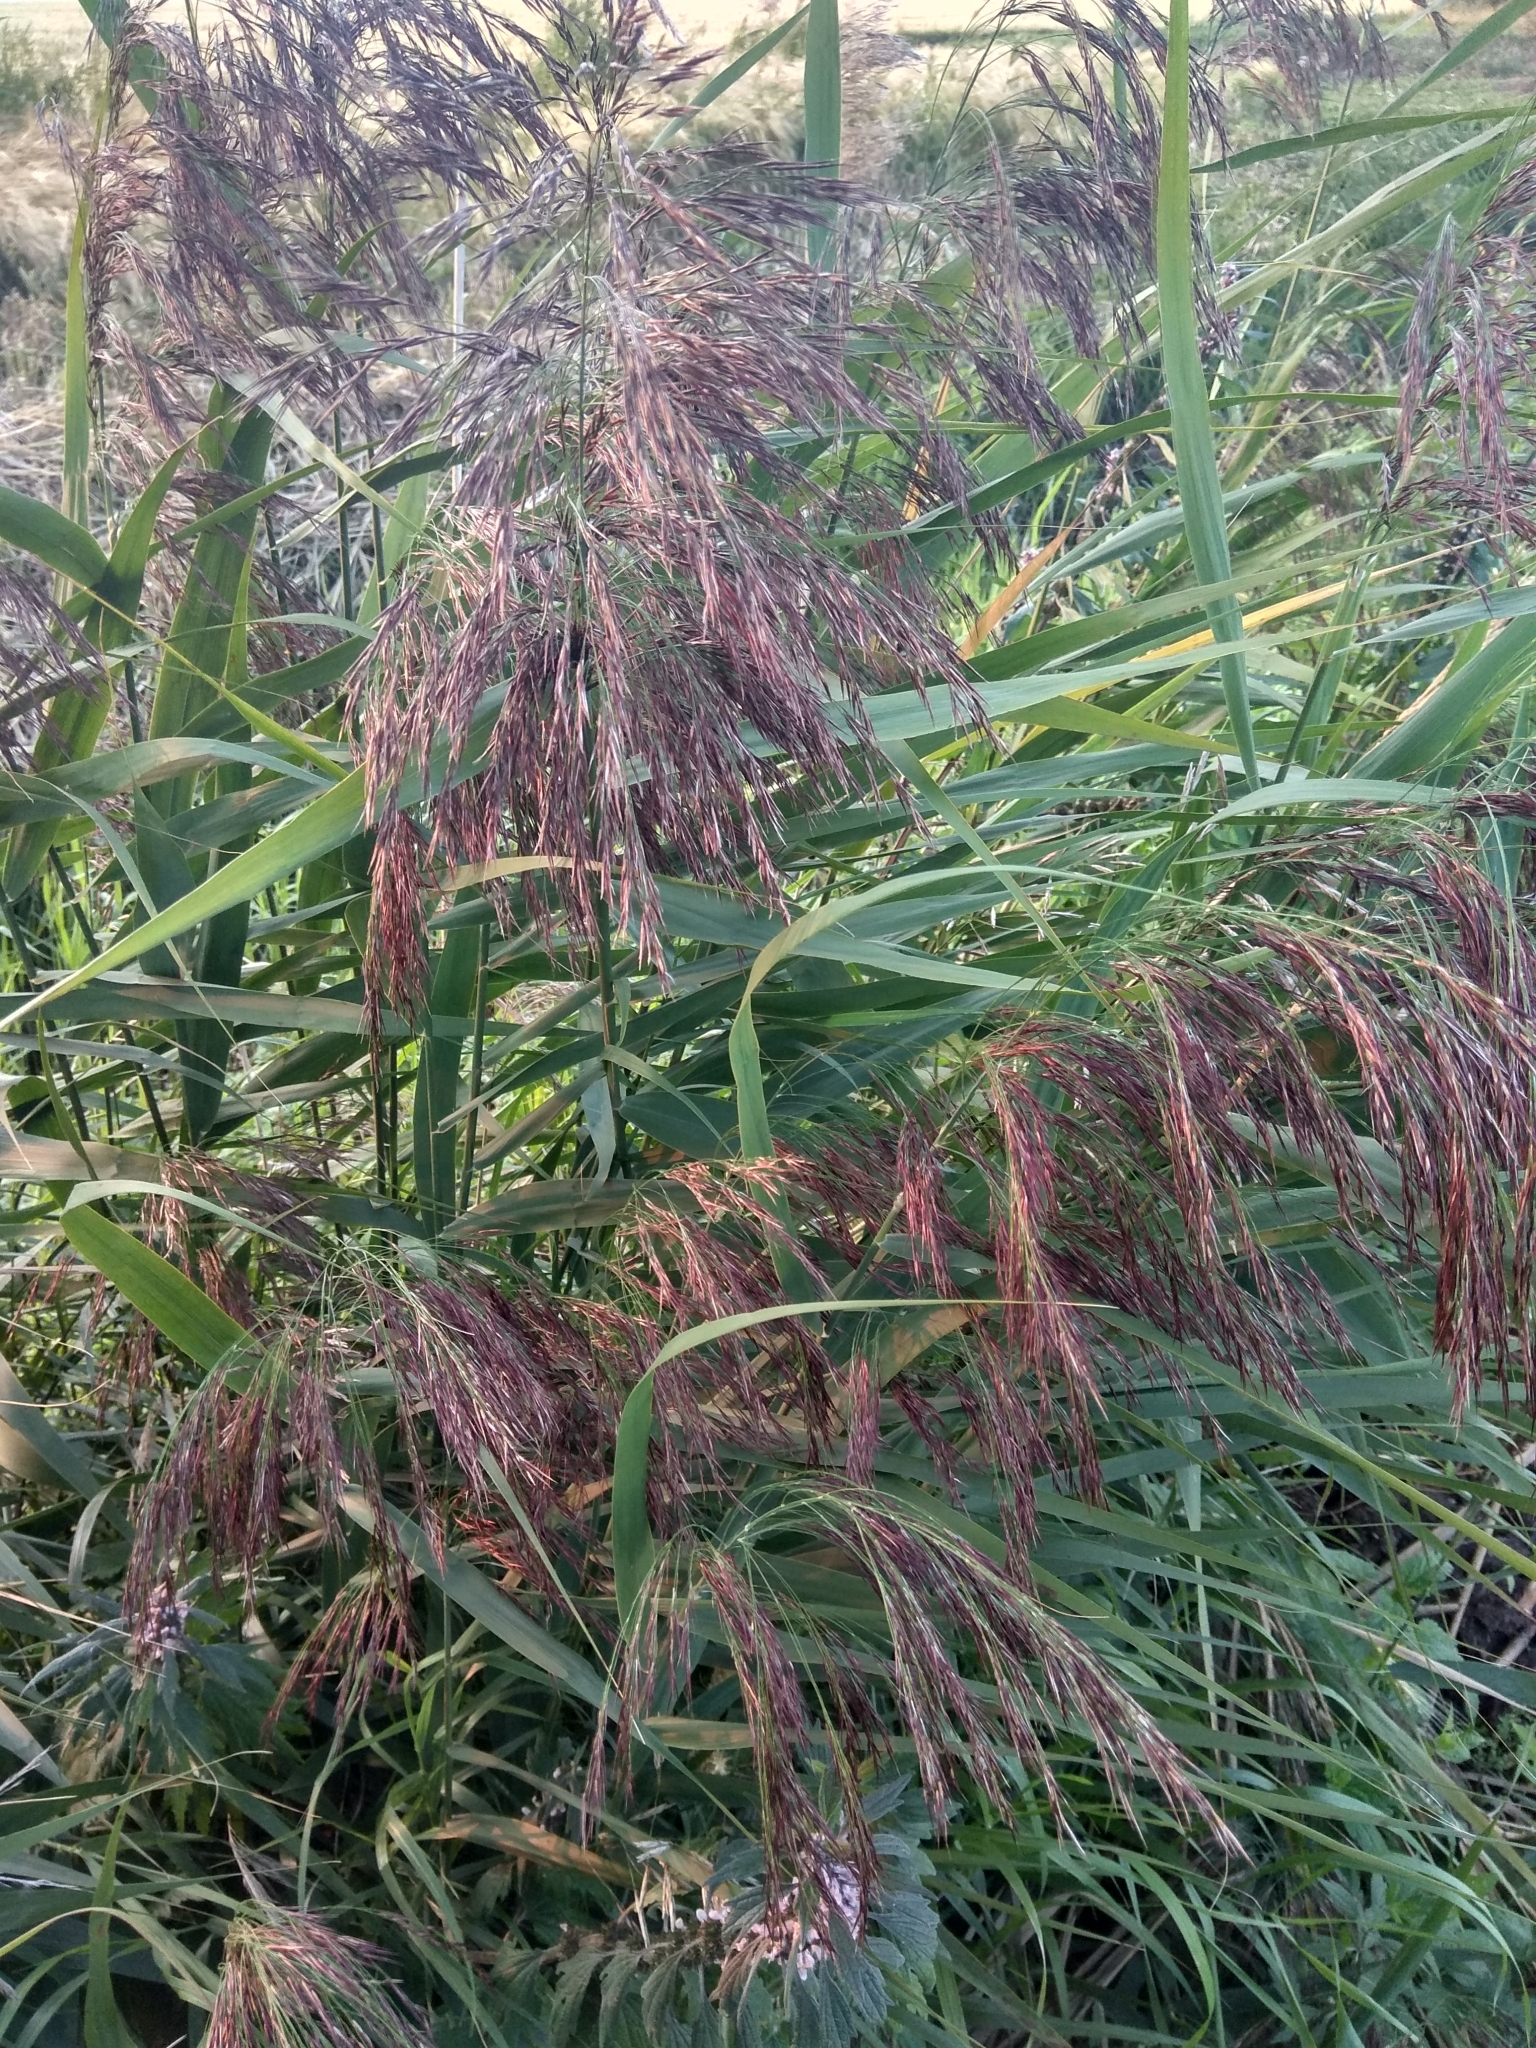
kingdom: Plantae
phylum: Tracheophyta
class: Liliopsida
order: Poales
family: Poaceae
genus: Phragmites
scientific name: Phragmites australis
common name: Common reed
